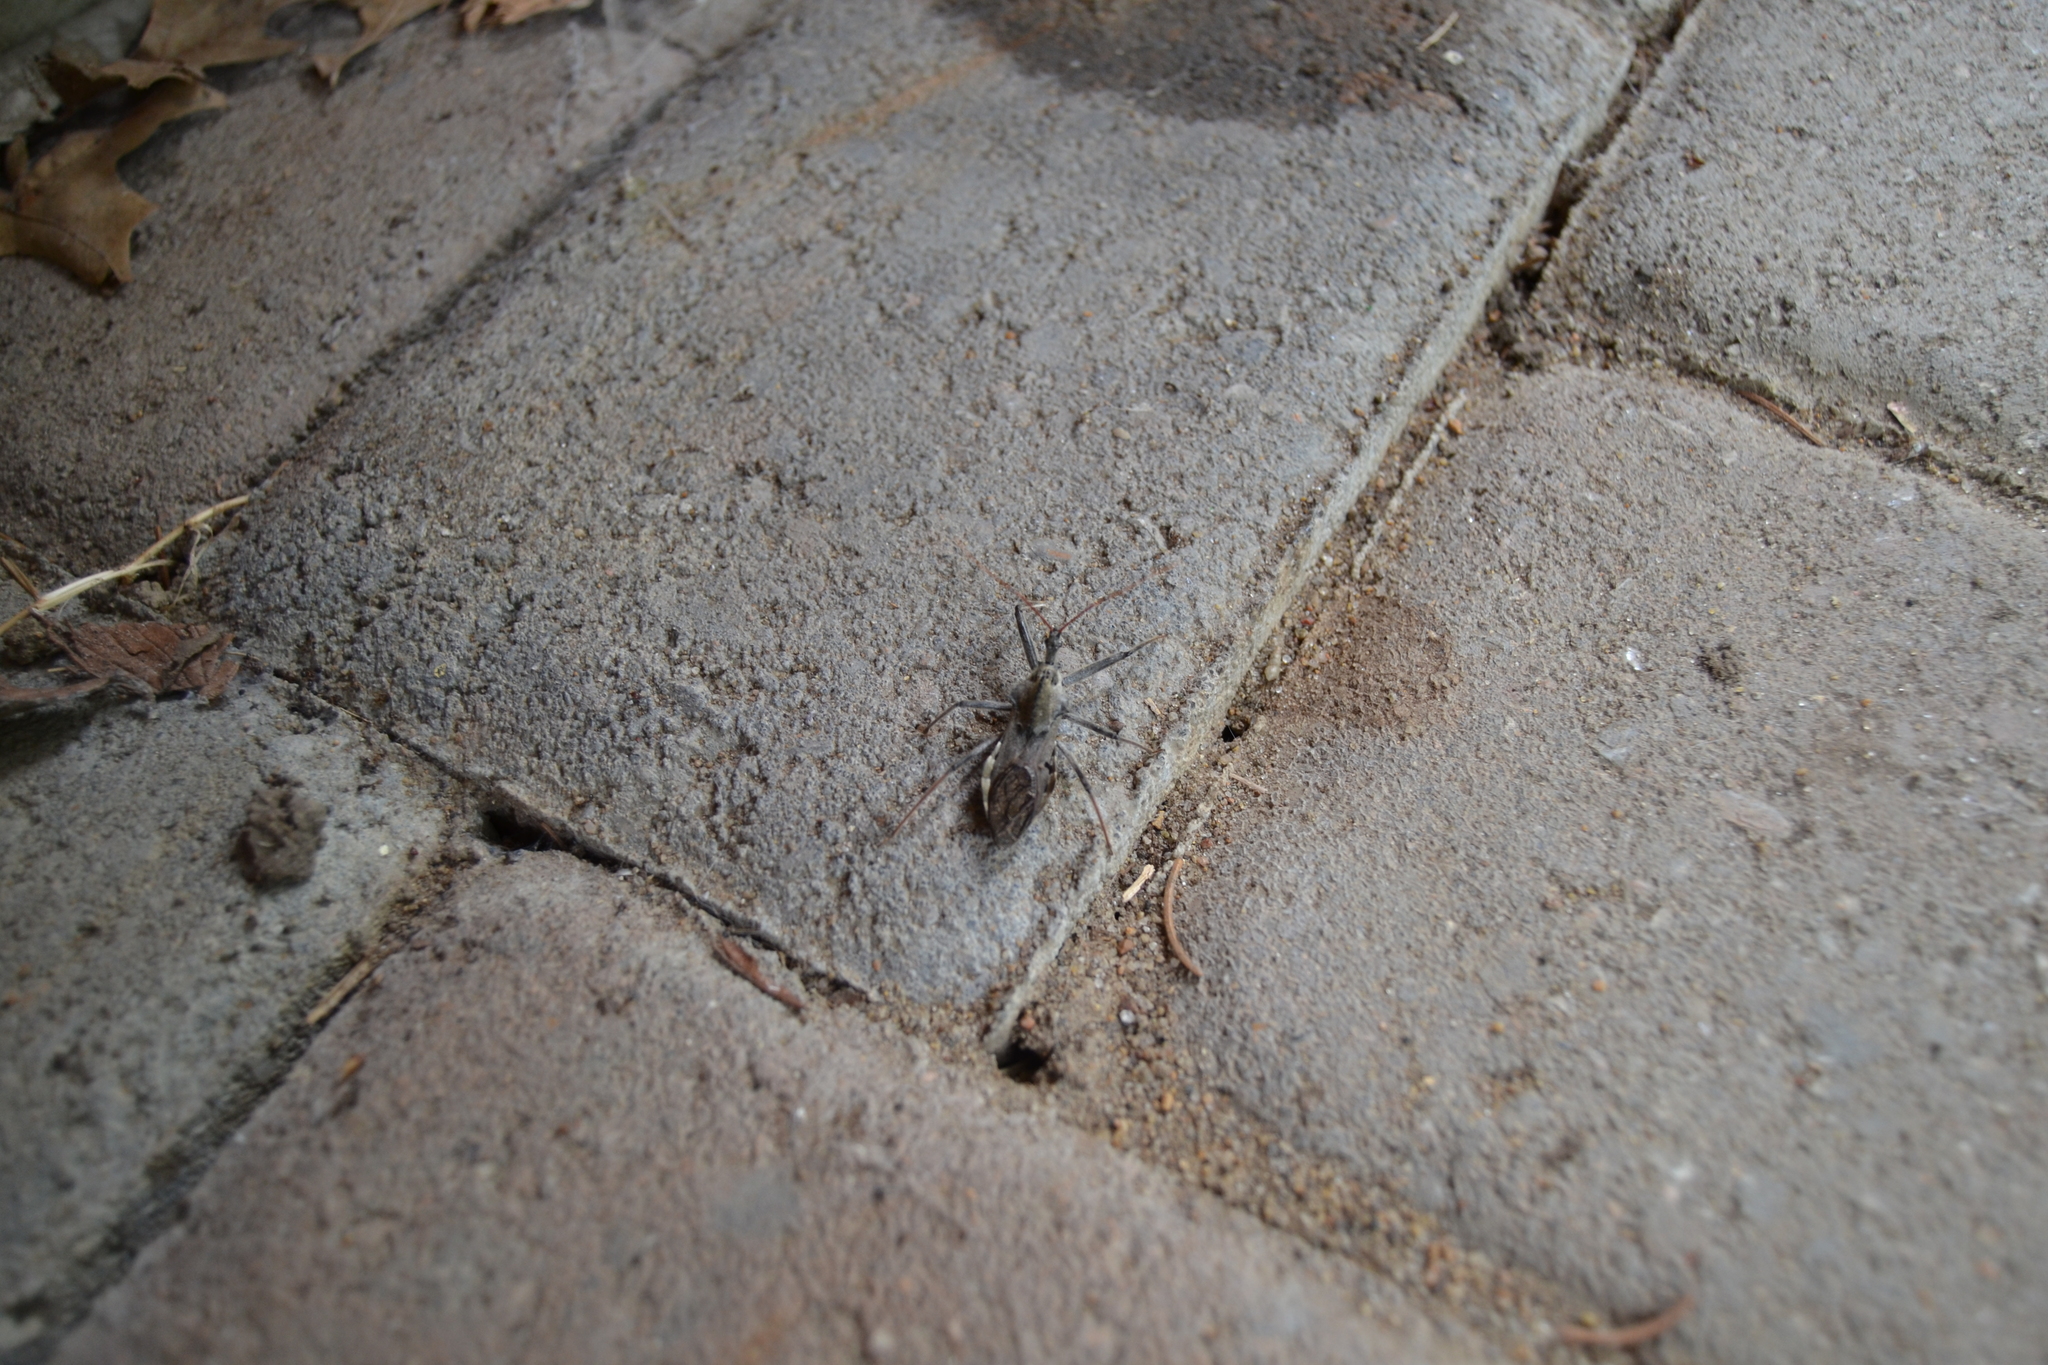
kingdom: Animalia
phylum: Arthropoda
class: Insecta
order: Hemiptera
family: Reduviidae
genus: Arilus
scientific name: Arilus cristatus
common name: North american wheel bug
